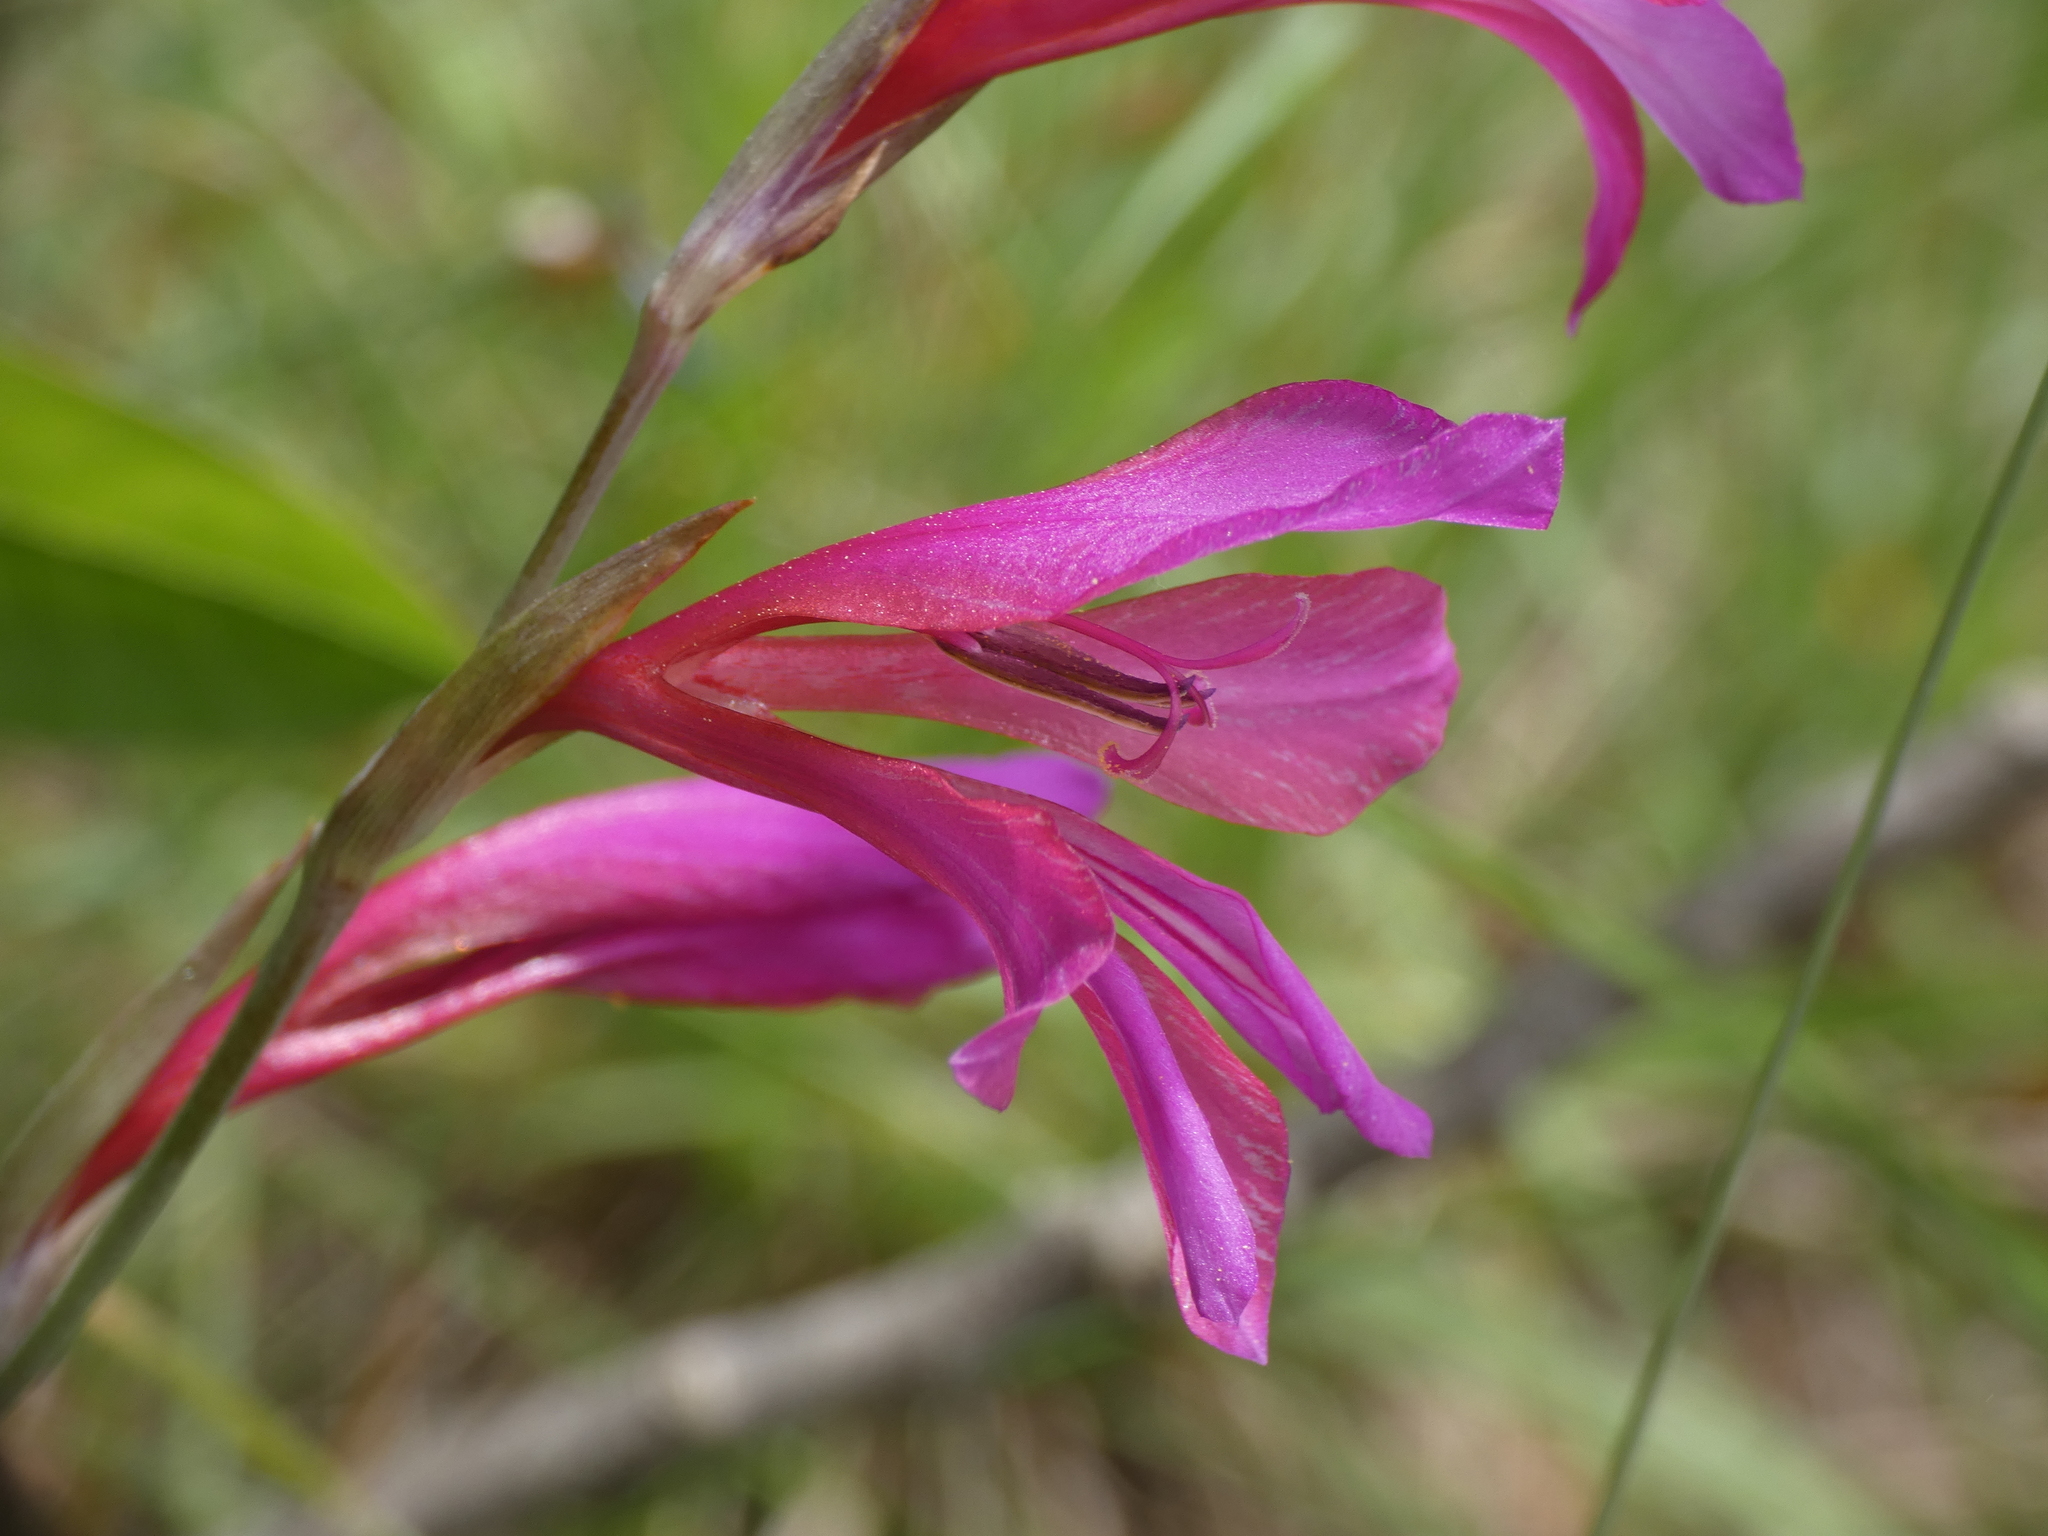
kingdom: Plantae
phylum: Tracheophyta
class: Liliopsida
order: Asparagales
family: Iridaceae
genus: Gladiolus
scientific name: Gladiolus dubius
